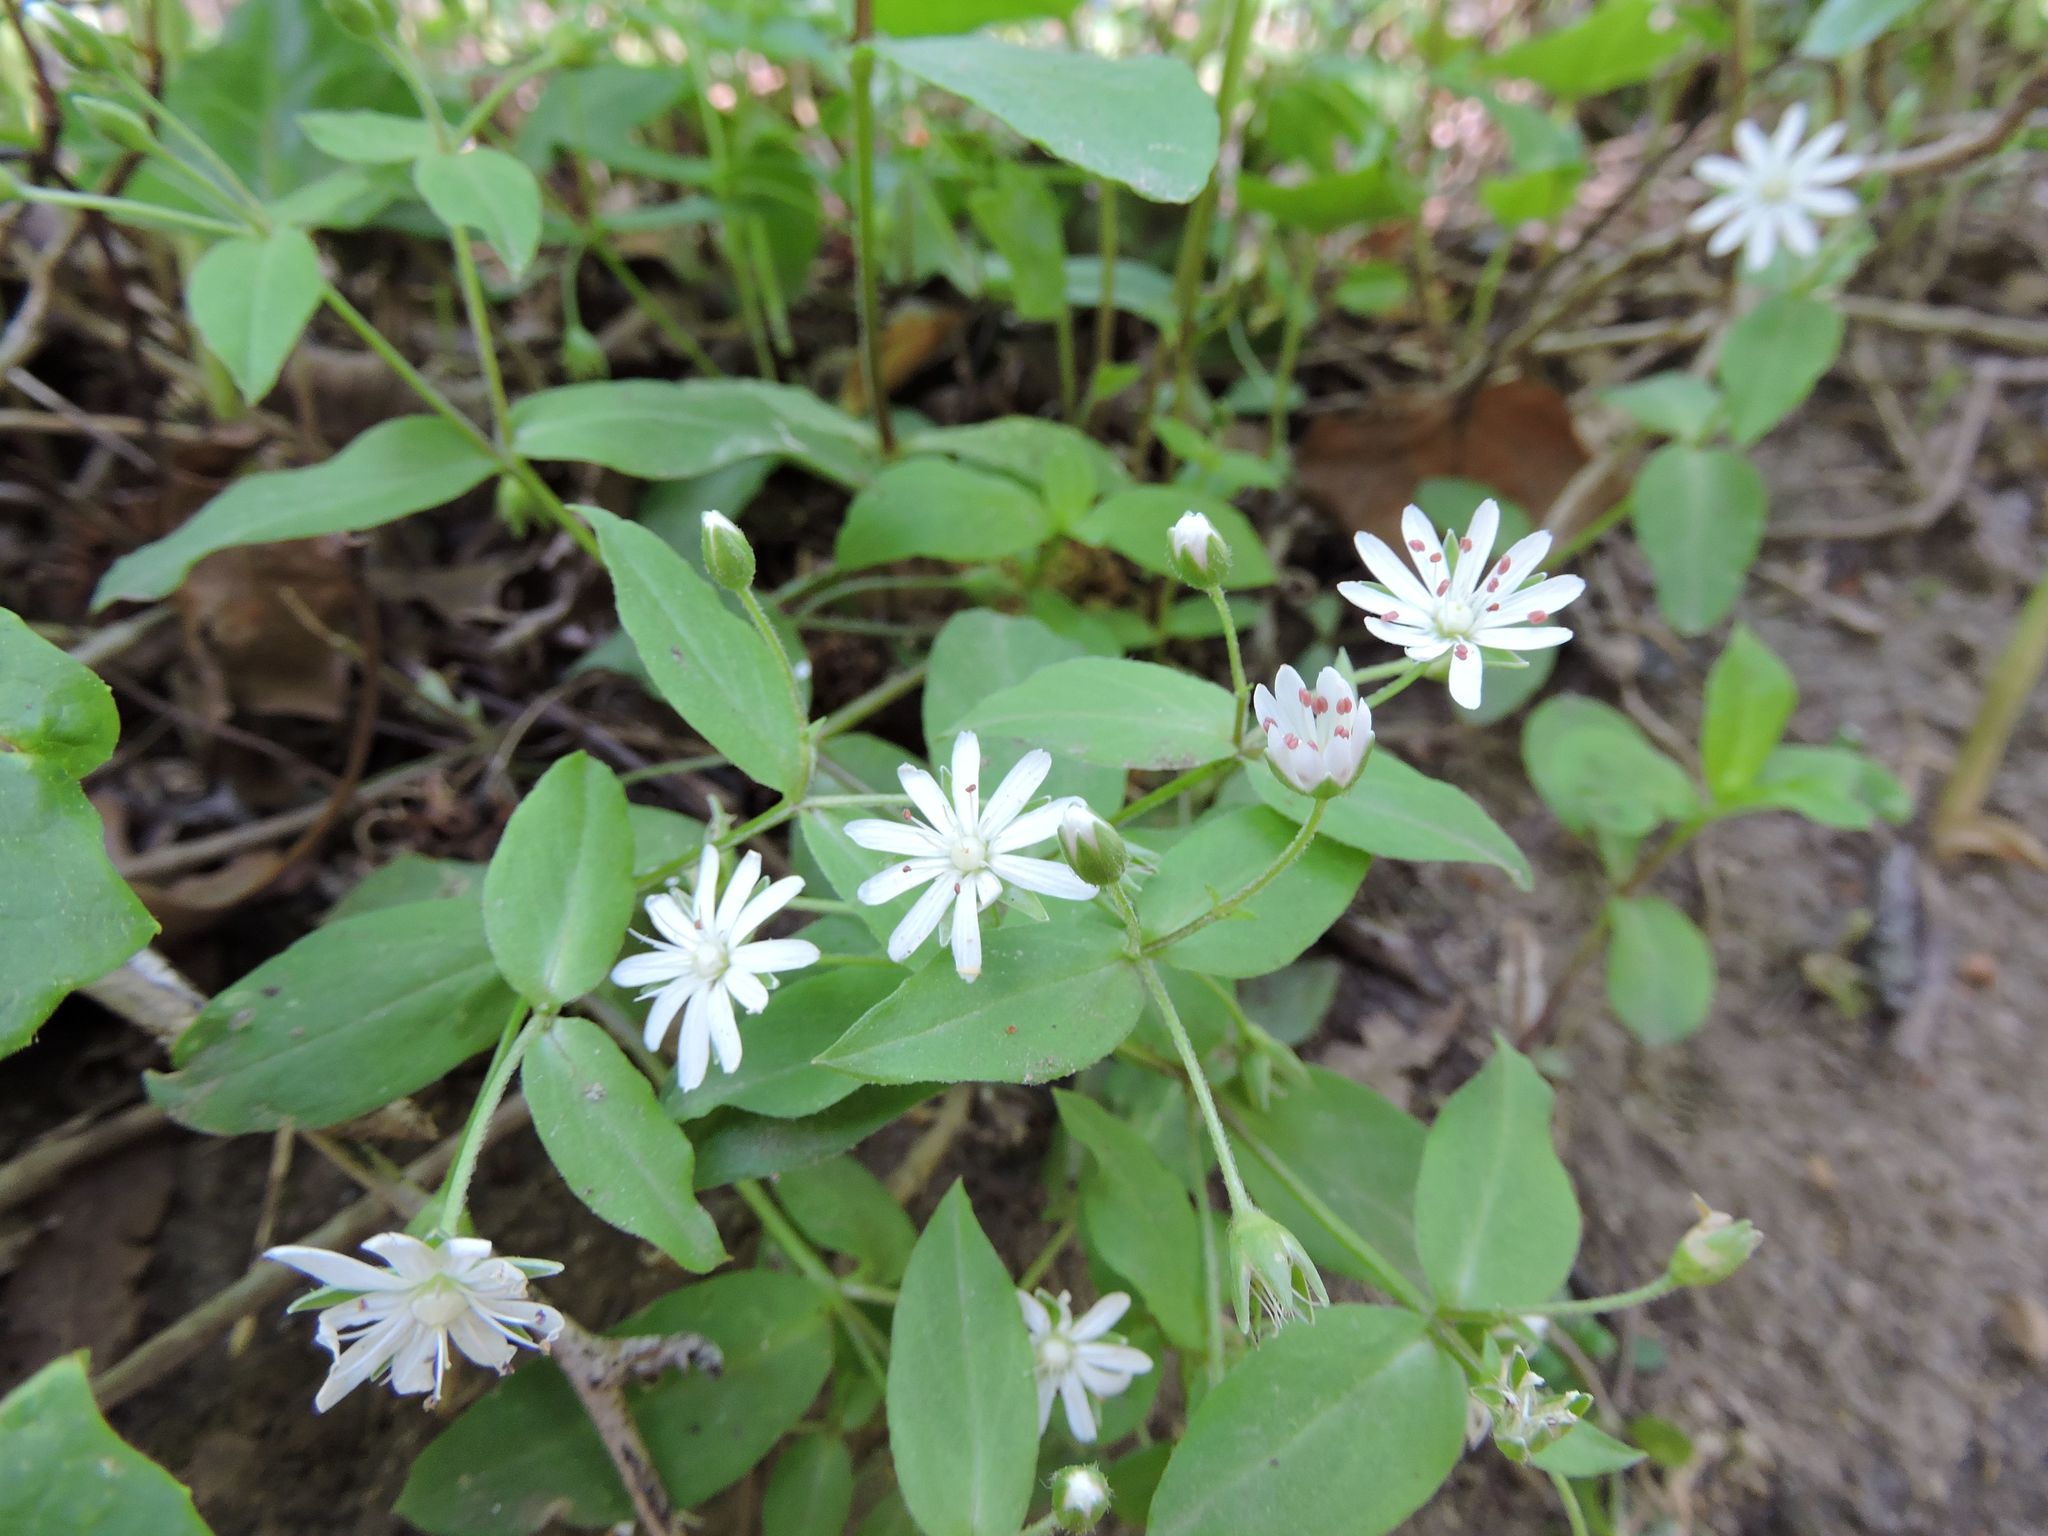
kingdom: Plantae
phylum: Tracheophyta
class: Magnoliopsida
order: Caryophyllales
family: Caryophyllaceae
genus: Stellaria
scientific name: Stellaria pubera
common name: Star chickweed
